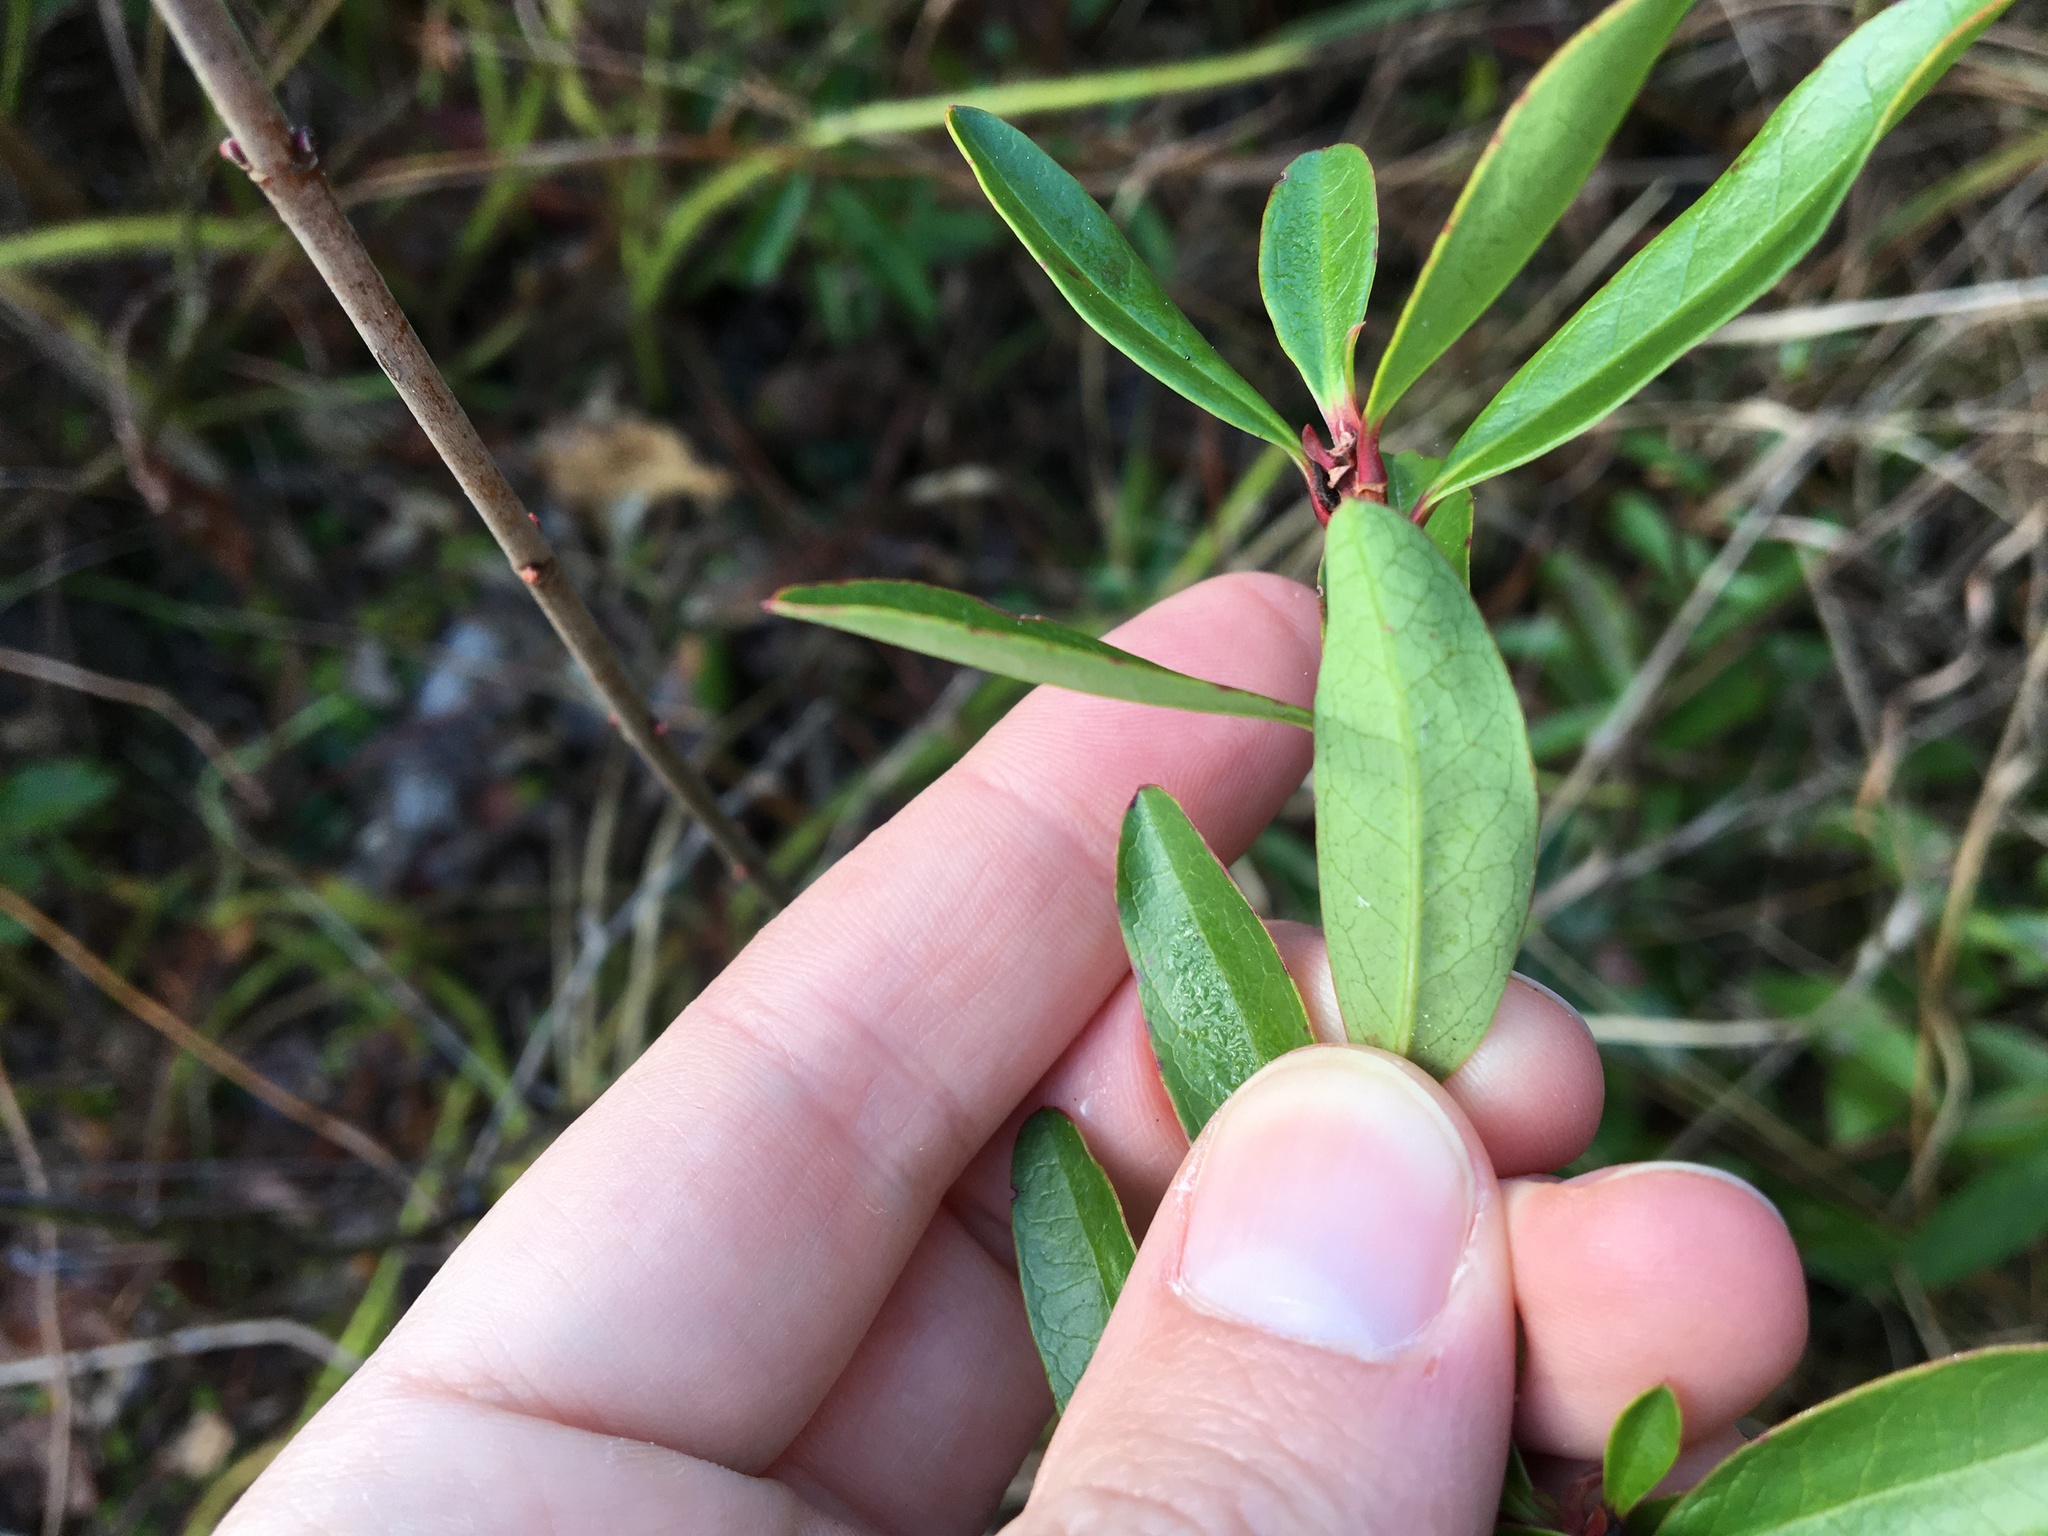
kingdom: Plantae
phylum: Tracheophyta
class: Magnoliopsida
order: Ericales
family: Cyrillaceae
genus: Cyrilla
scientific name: Cyrilla racemiflora
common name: Black titi
